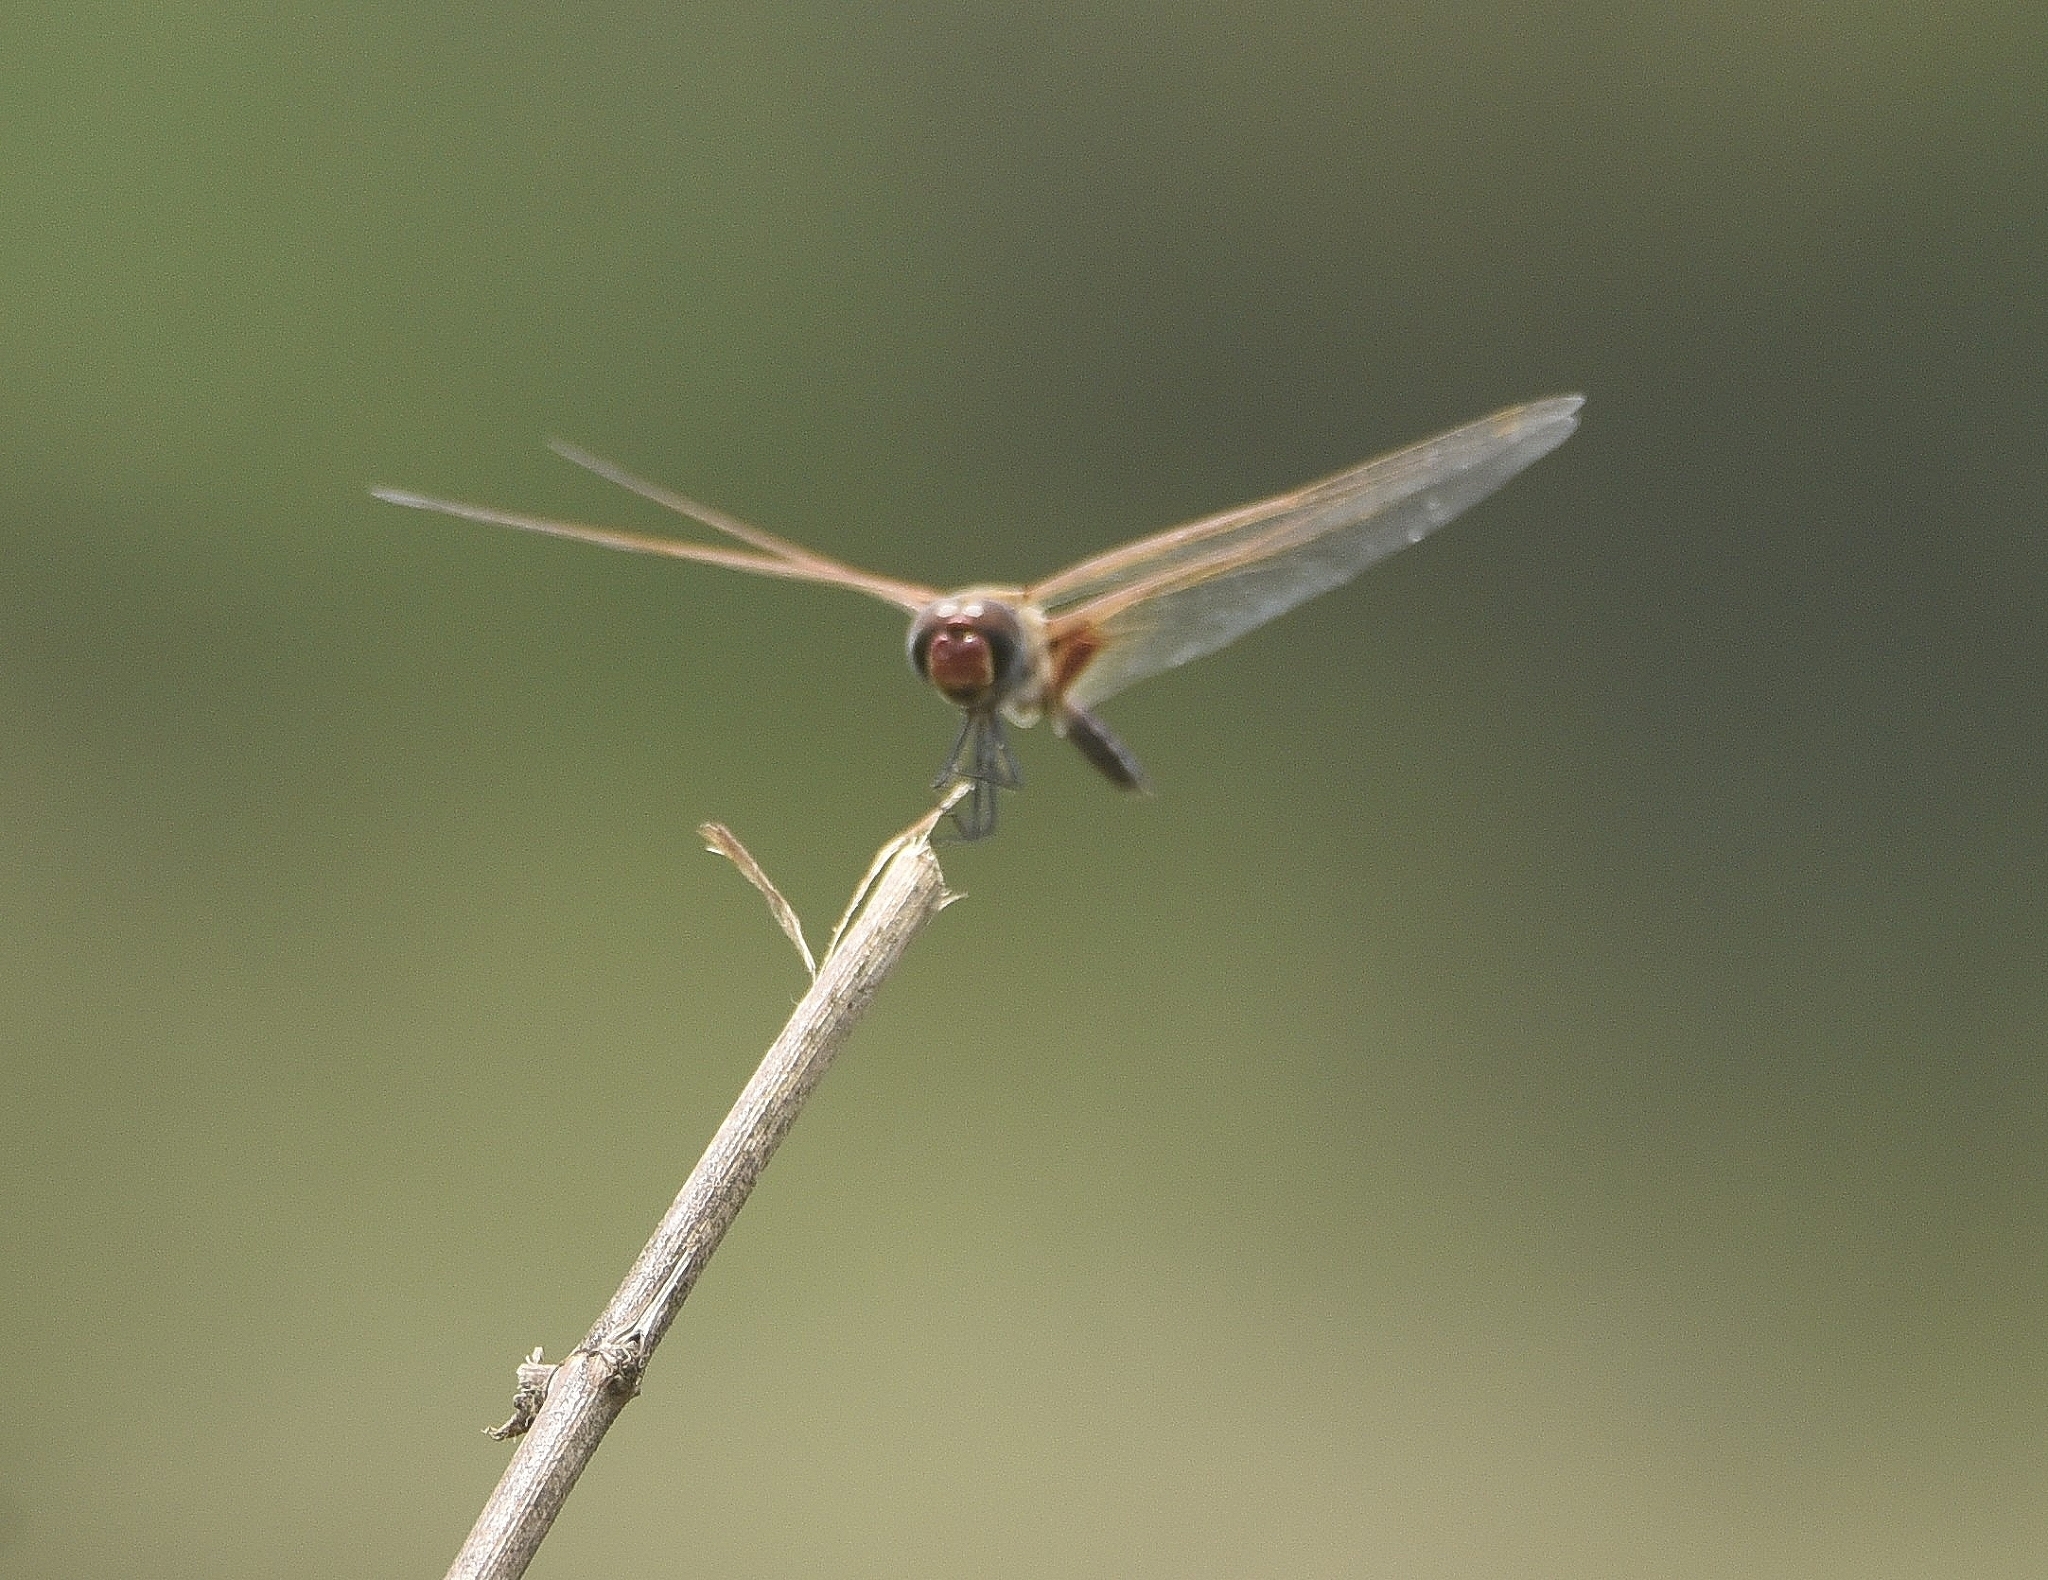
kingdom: Animalia
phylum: Arthropoda
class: Insecta
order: Odonata
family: Libellulidae
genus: Tramea
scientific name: Tramea basilaris
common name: Keyhole glider
